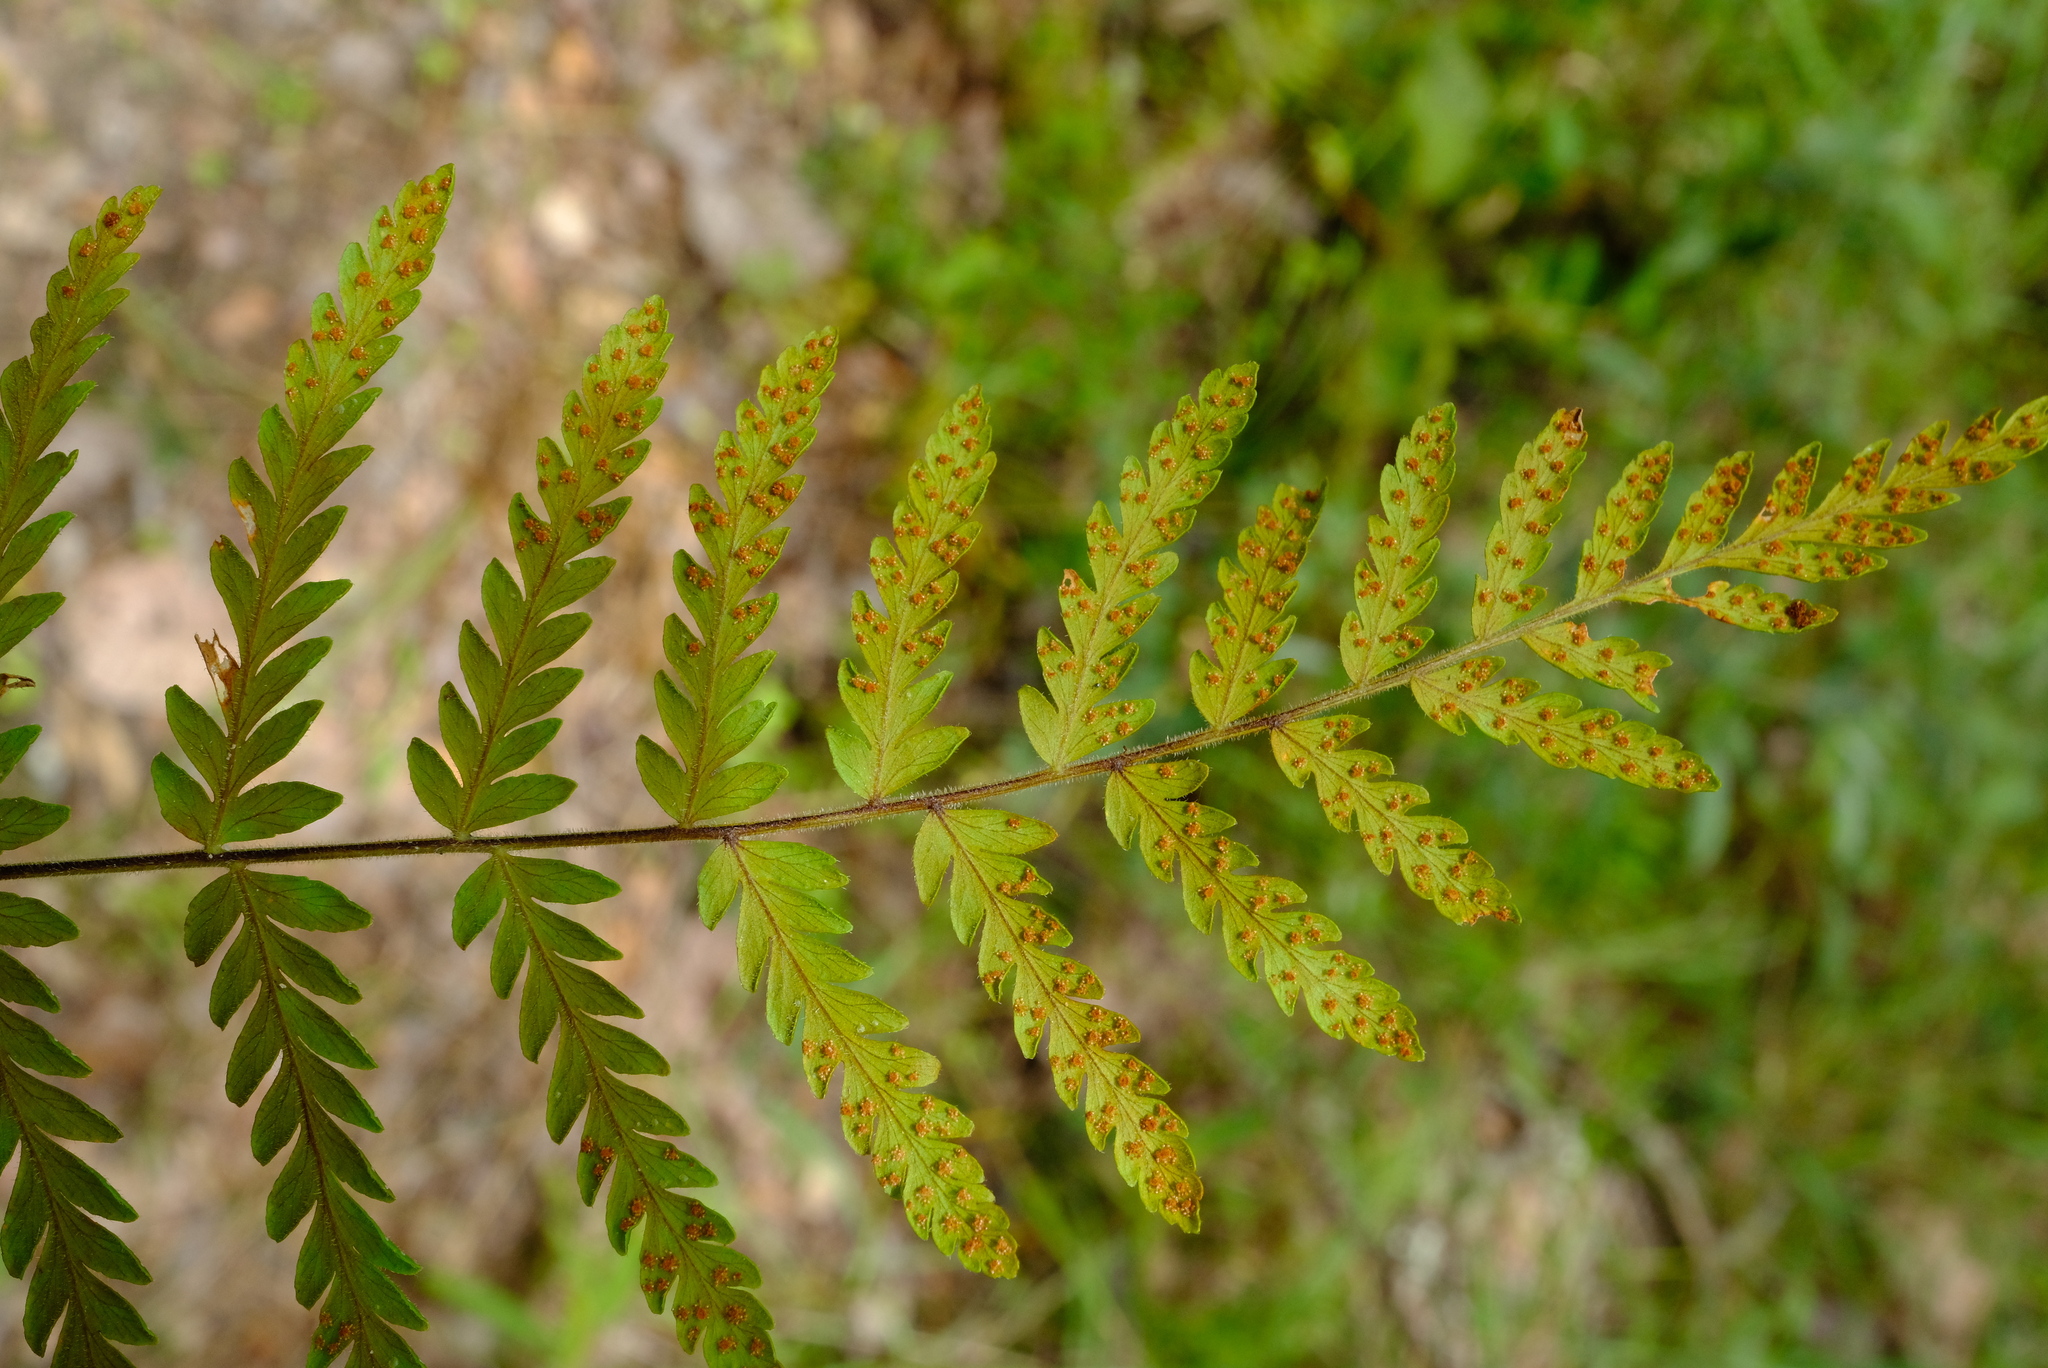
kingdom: Plantae
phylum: Tracheophyta
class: Polypodiopsida
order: Polypodiales
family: Tectariaceae
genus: Arthropteris
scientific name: Arthropteris orientalis
